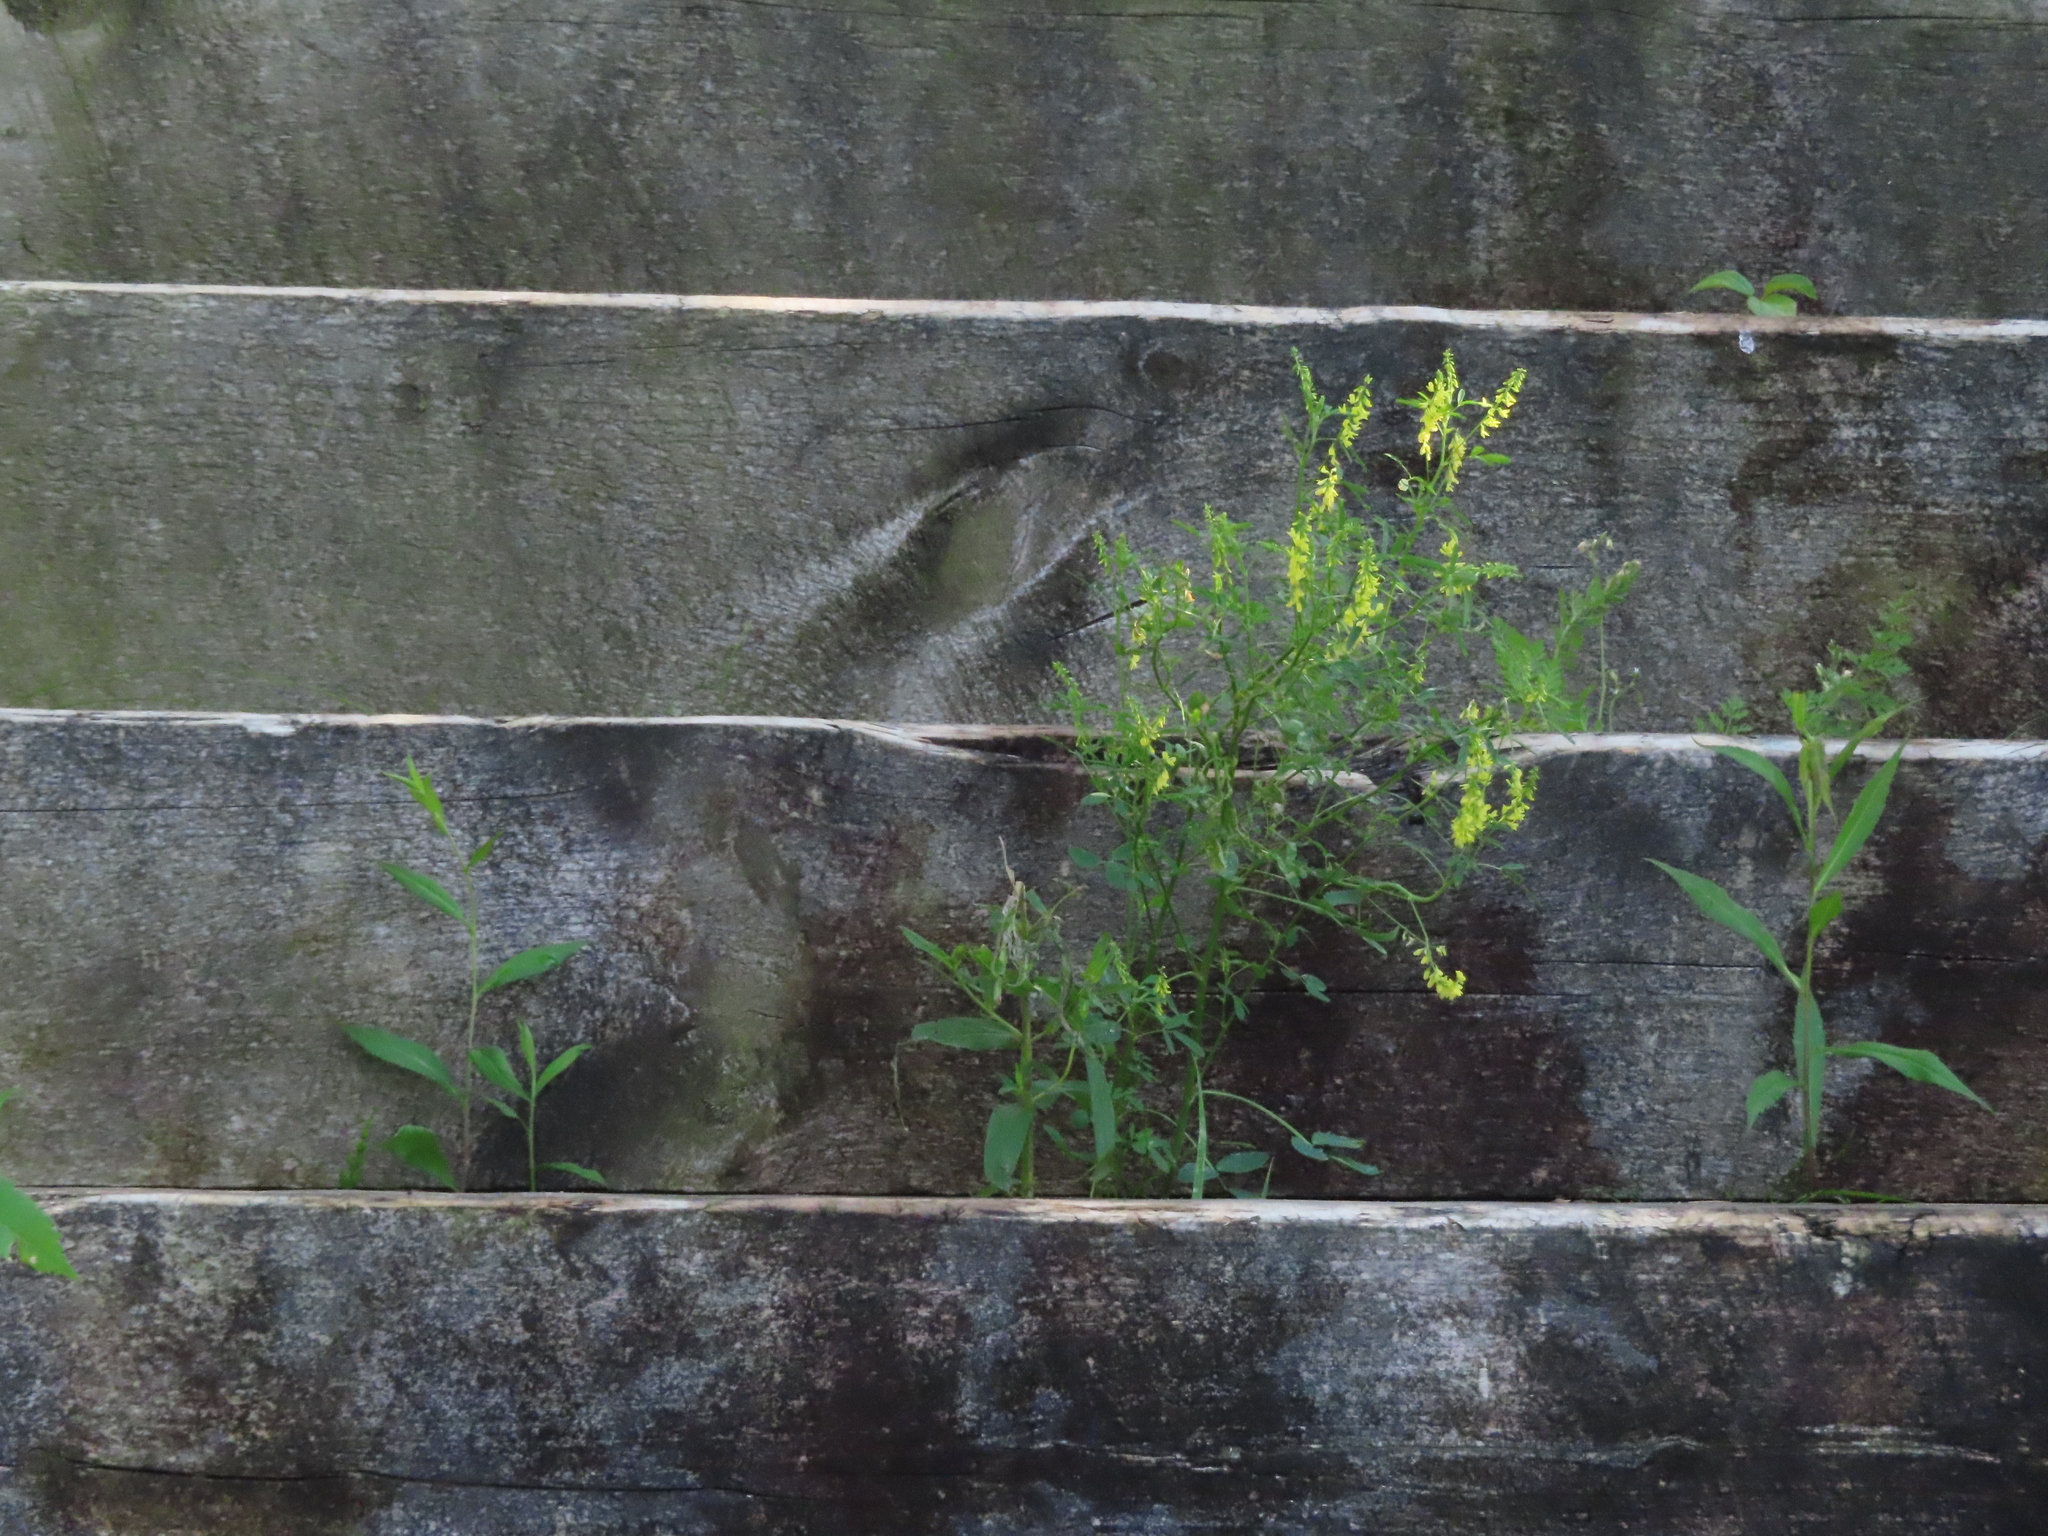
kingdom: Plantae
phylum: Tracheophyta
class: Magnoliopsida
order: Fabales
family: Fabaceae
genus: Melilotus
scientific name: Melilotus officinalis
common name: Sweetclover
